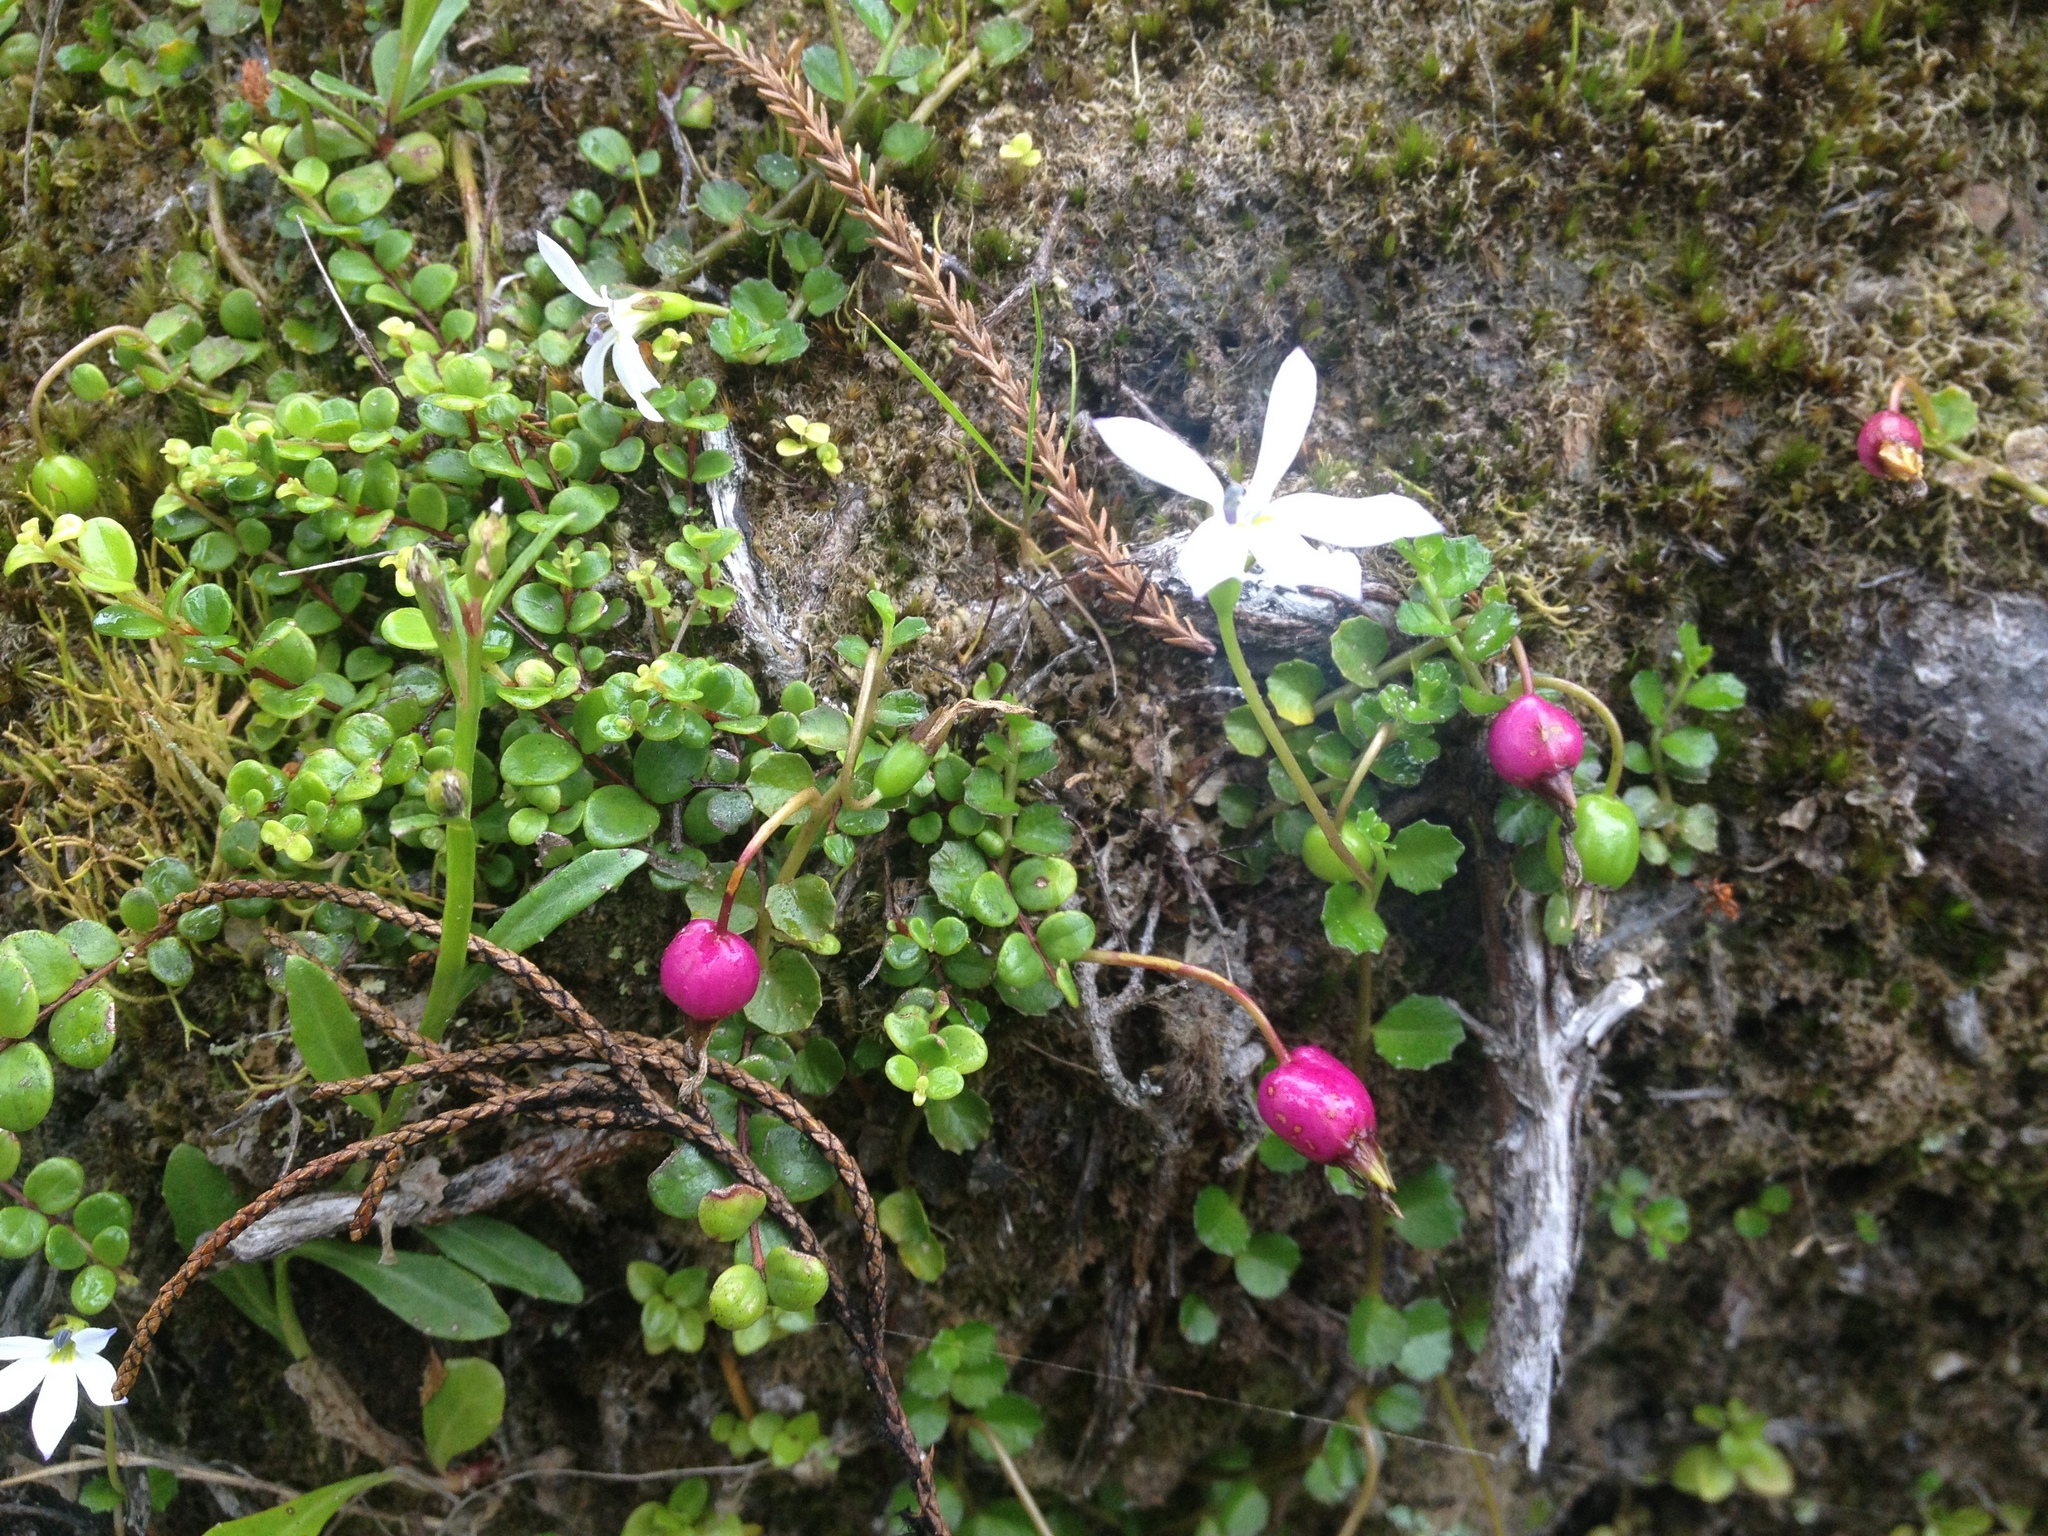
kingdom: Plantae
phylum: Tracheophyta
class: Magnoliopsida
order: Asterales
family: Campanulaceae
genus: Lobelia
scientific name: Lobelia angulata
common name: Lawn lobelia
